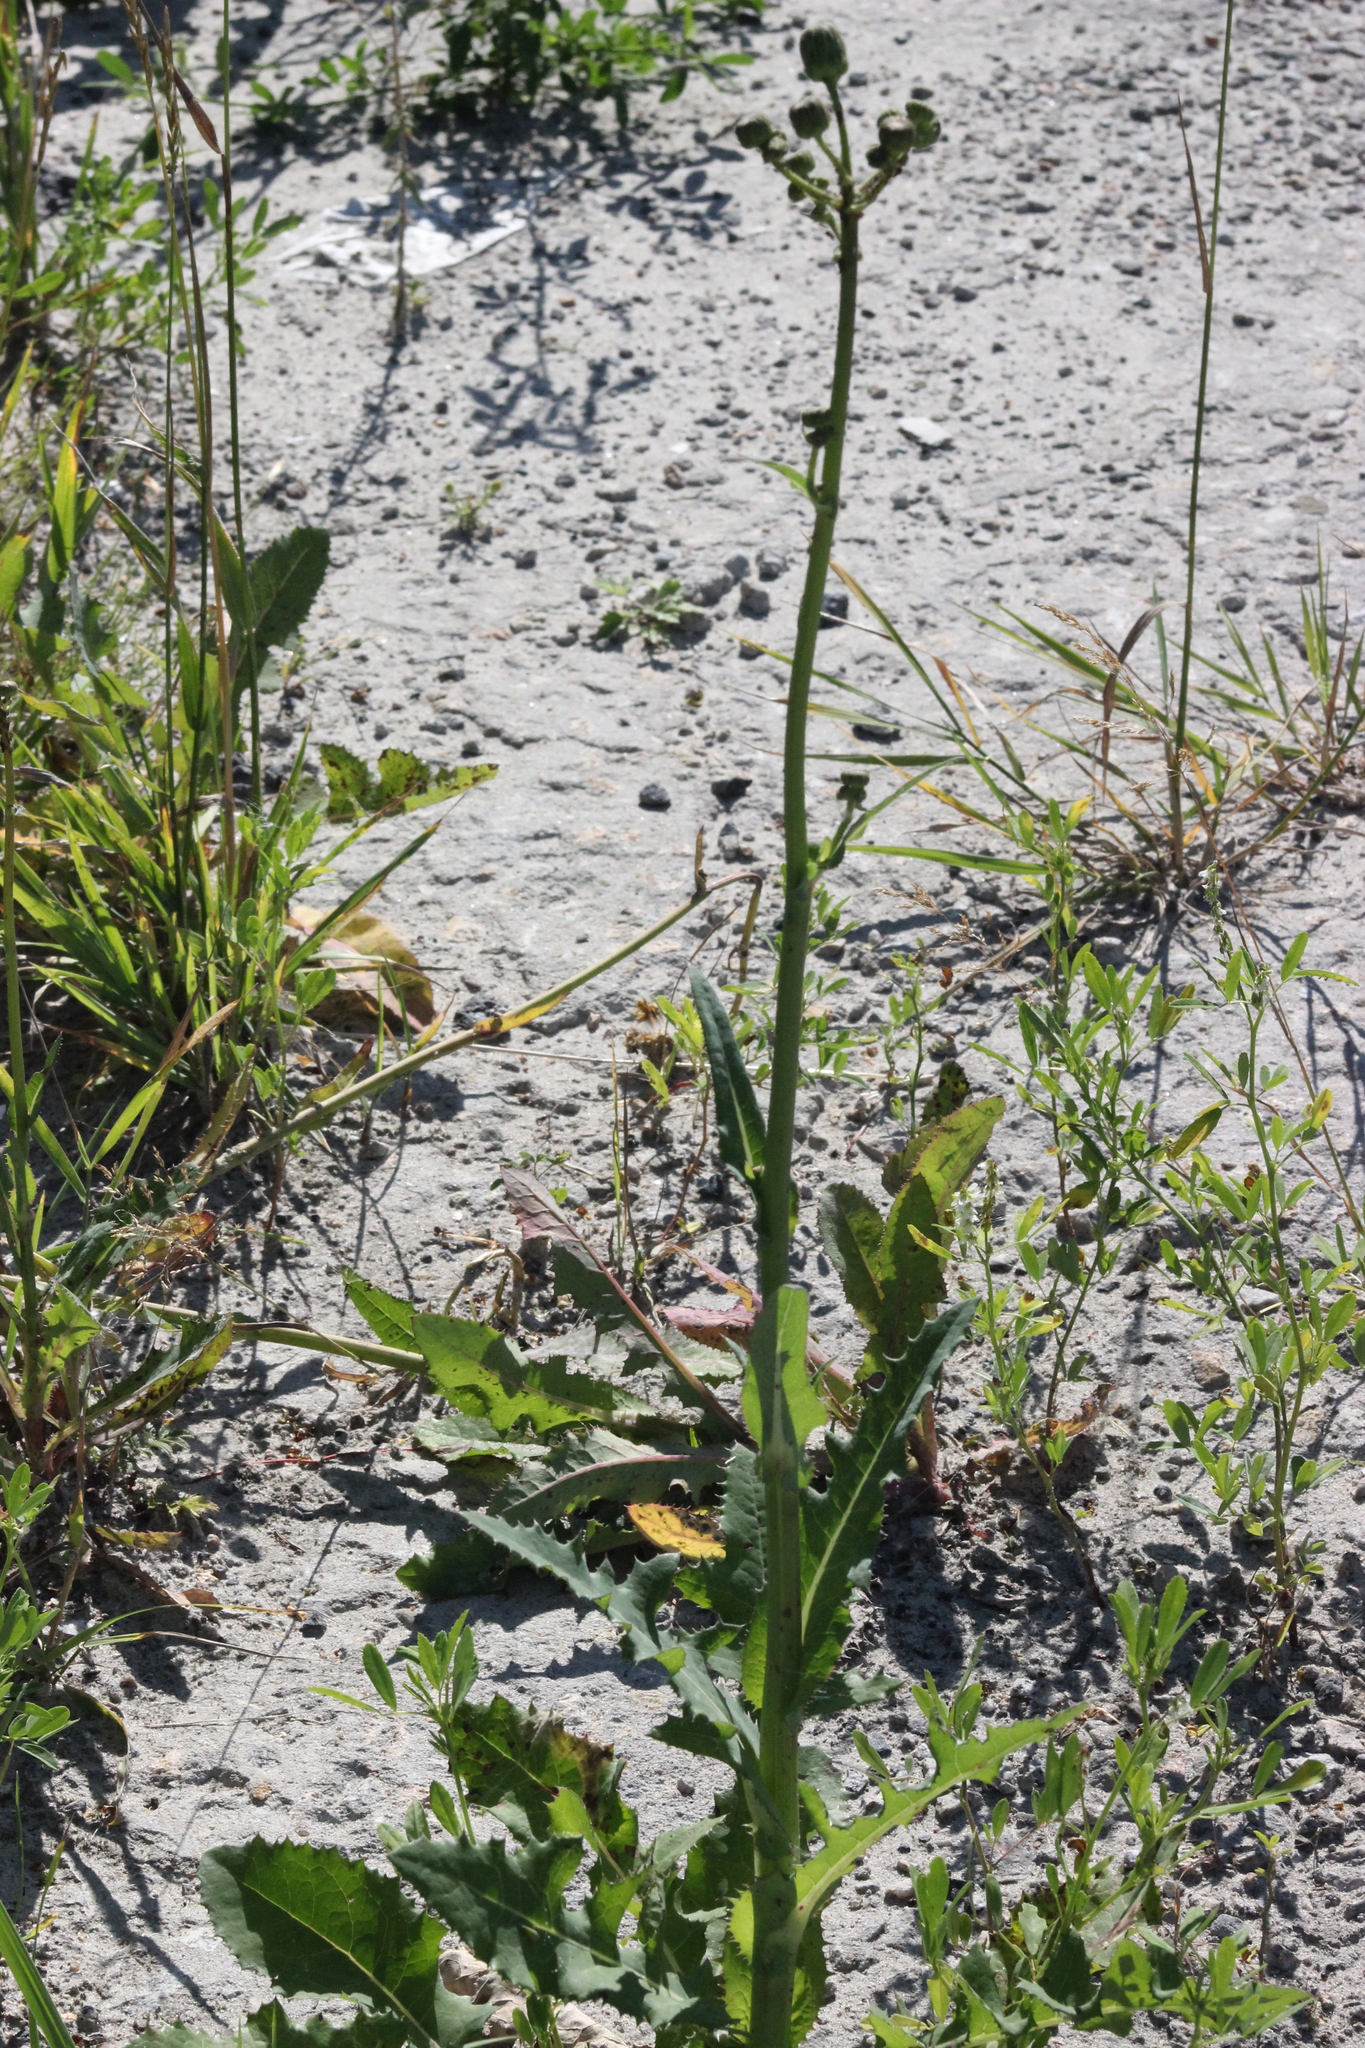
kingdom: Plantae
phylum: Tracheophyta
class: Magnoliopsida
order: Asterales
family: Asteraceae
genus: Sonchus
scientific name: Sonchus arvensis
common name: Perennial sow-thistle
